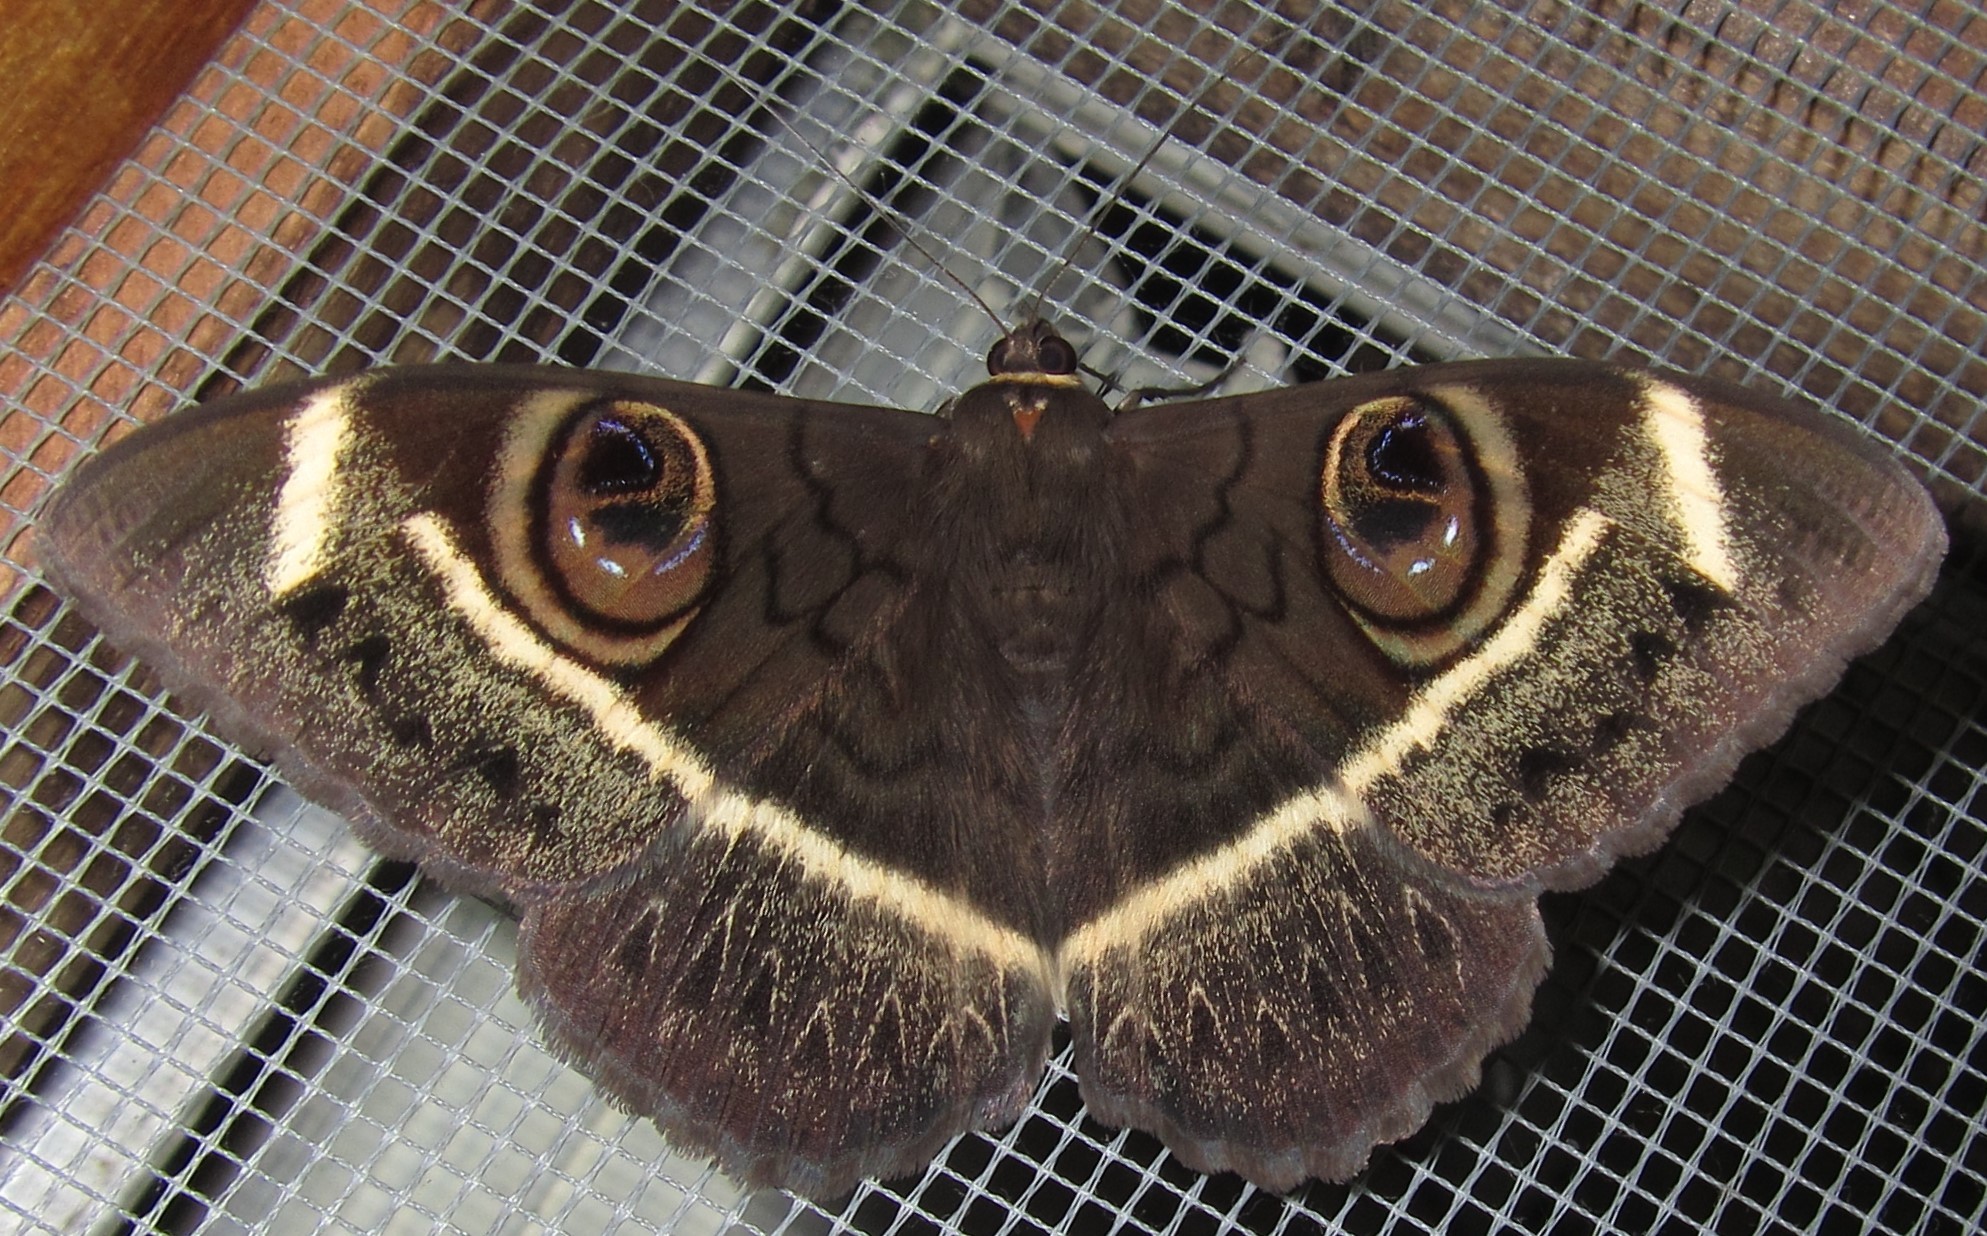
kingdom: Animalia
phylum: Arthropoda
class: Insecta
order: Lepidoptera
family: Erebidae
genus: Cyligramma
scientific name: Cyligramma latona
